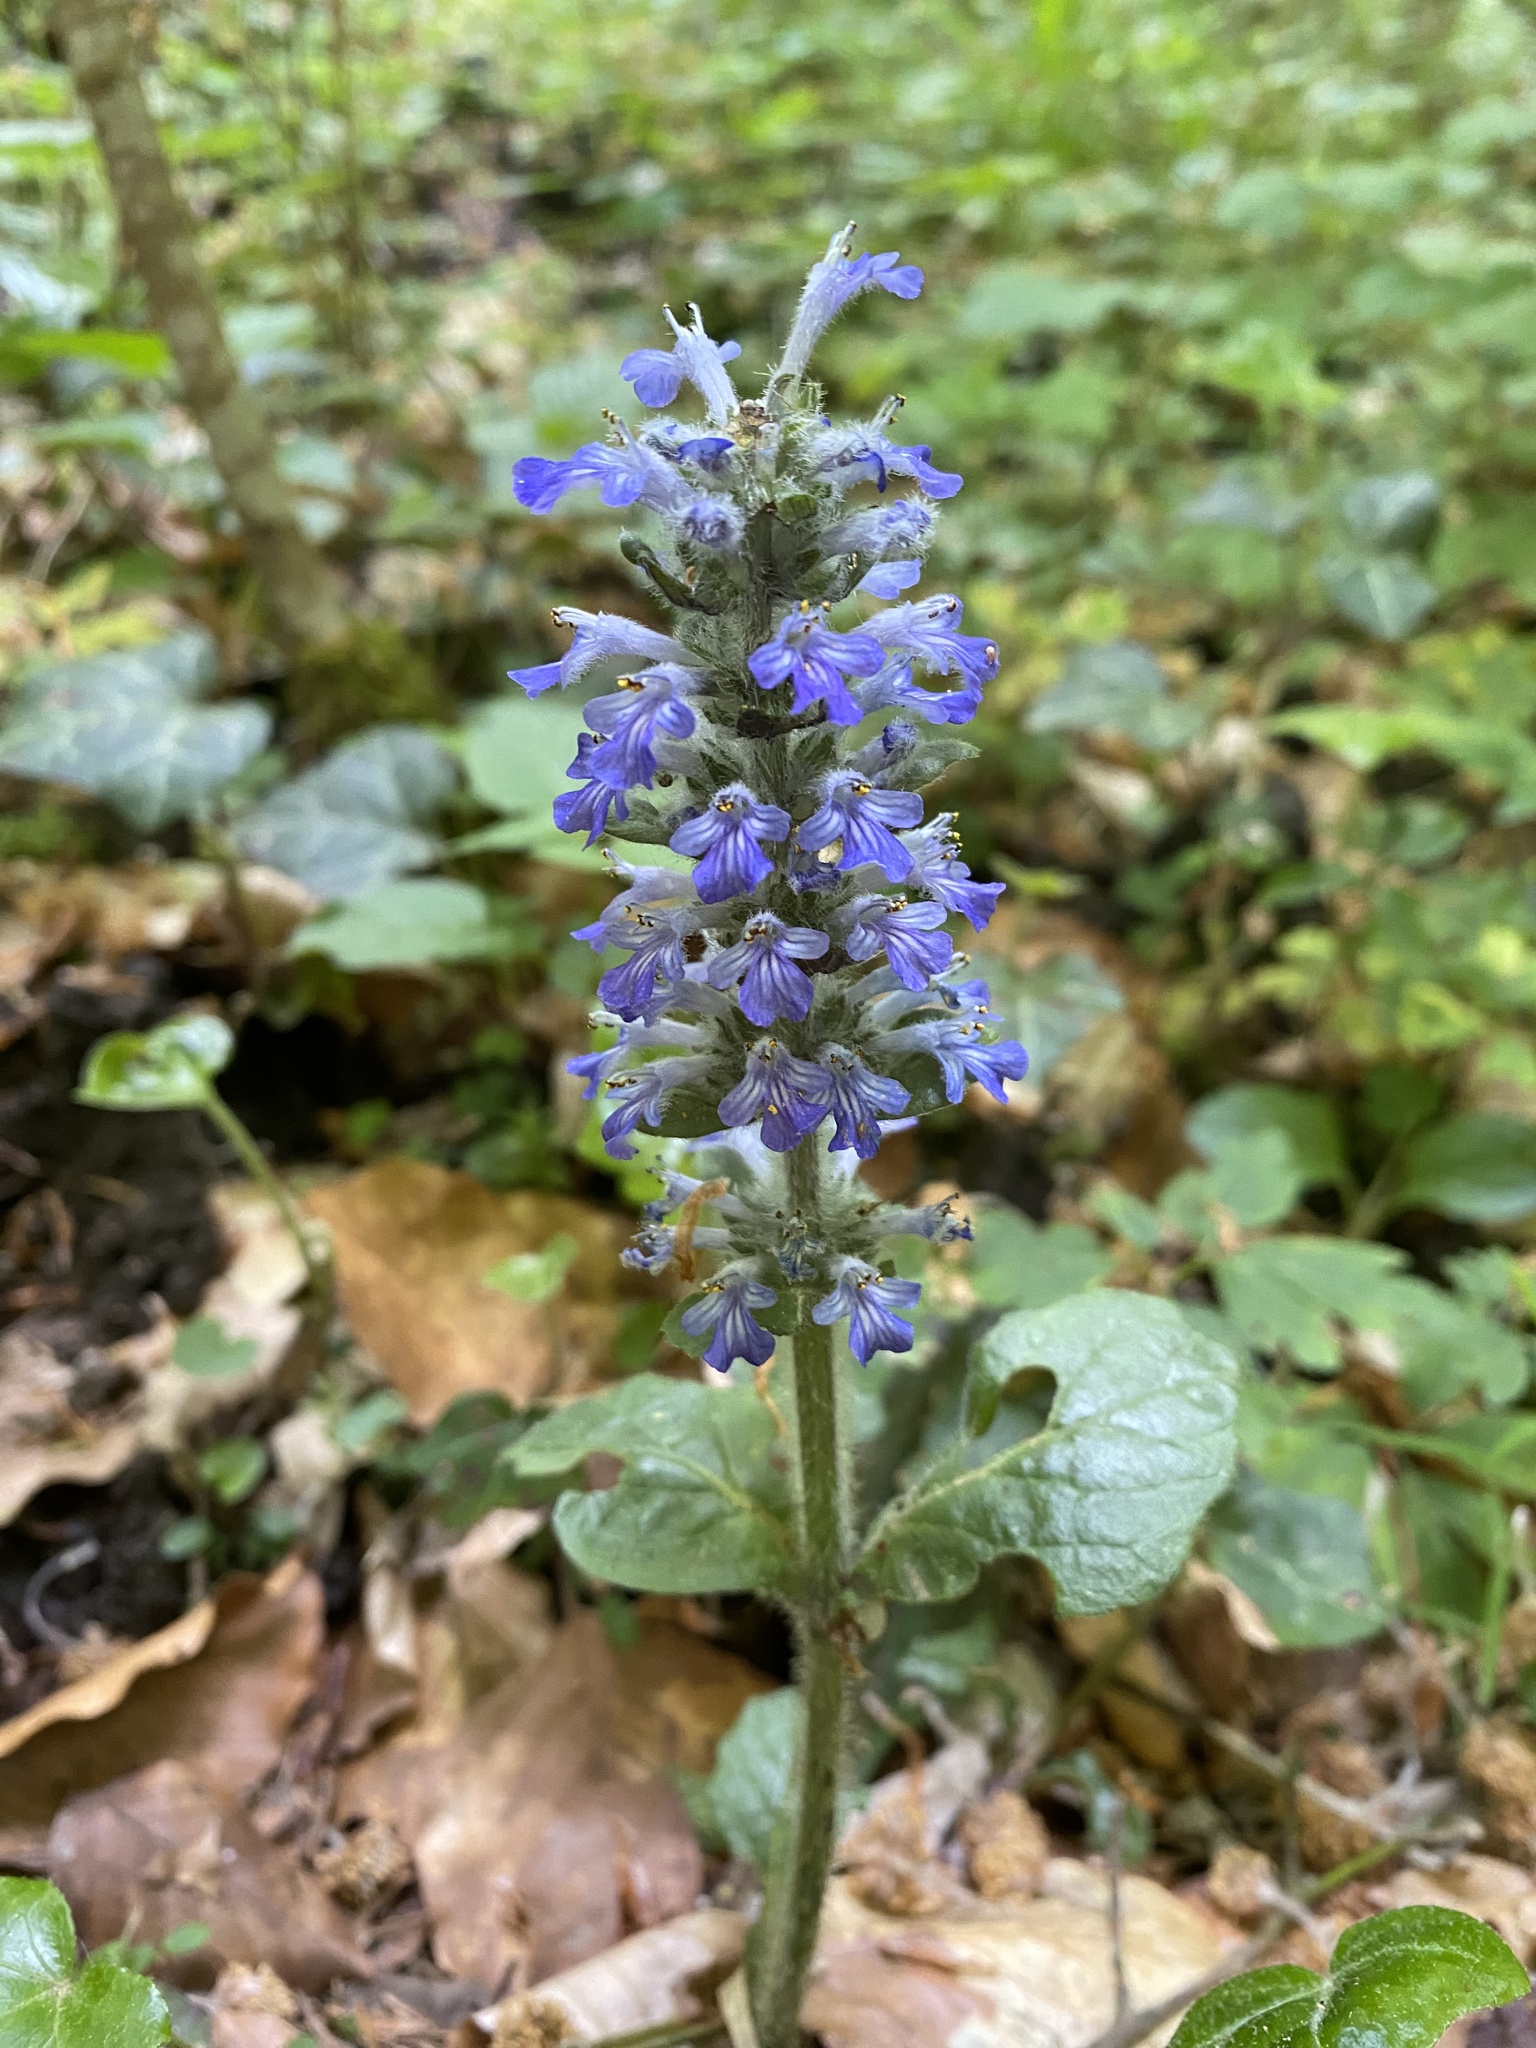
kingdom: Plantae
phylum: Tracheophyta
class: Magnoliopsida
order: Lamiales
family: Lamiaceae
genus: Ajuga
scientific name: Ajuga reptans
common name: Bugle
